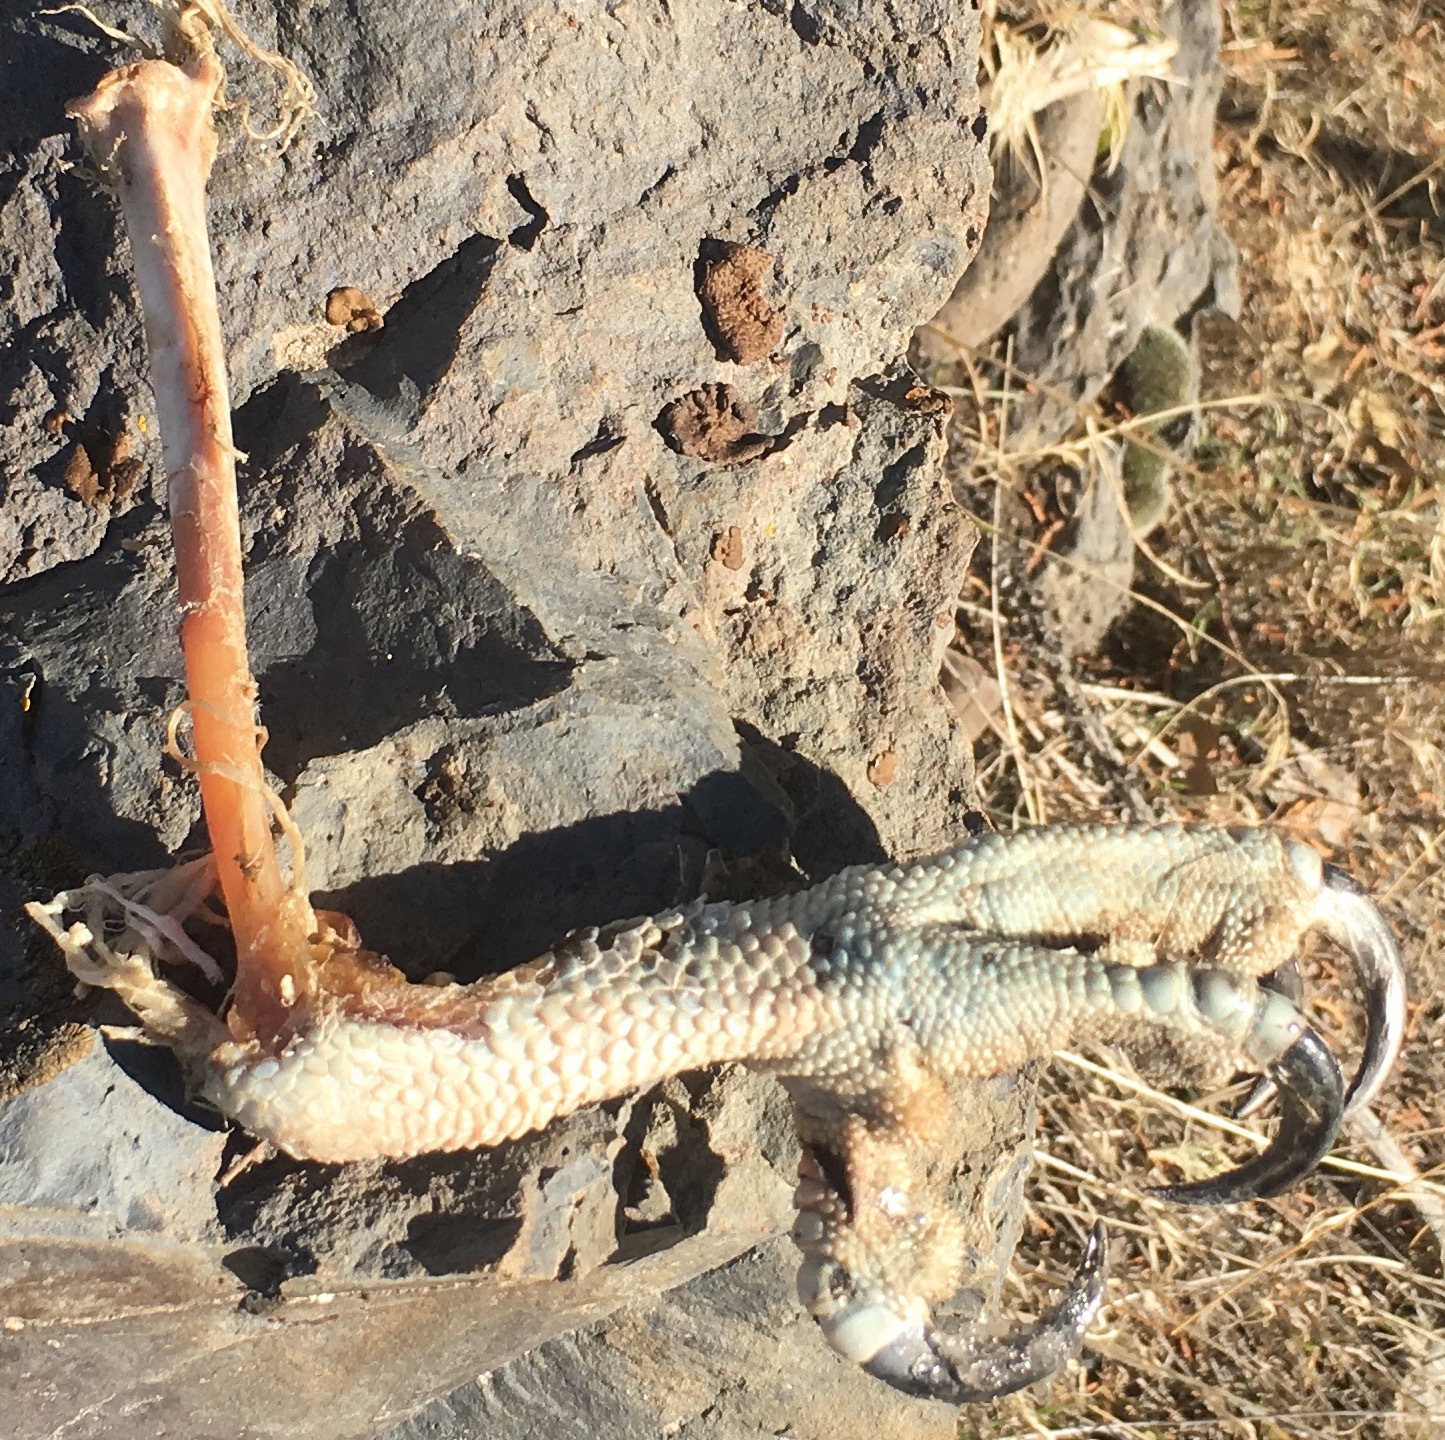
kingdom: Animalia
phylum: Chordata
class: Aves
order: Accipitriformes
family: Pandionidae
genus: Pandion
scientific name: Pandion haliaetus
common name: Osprey
